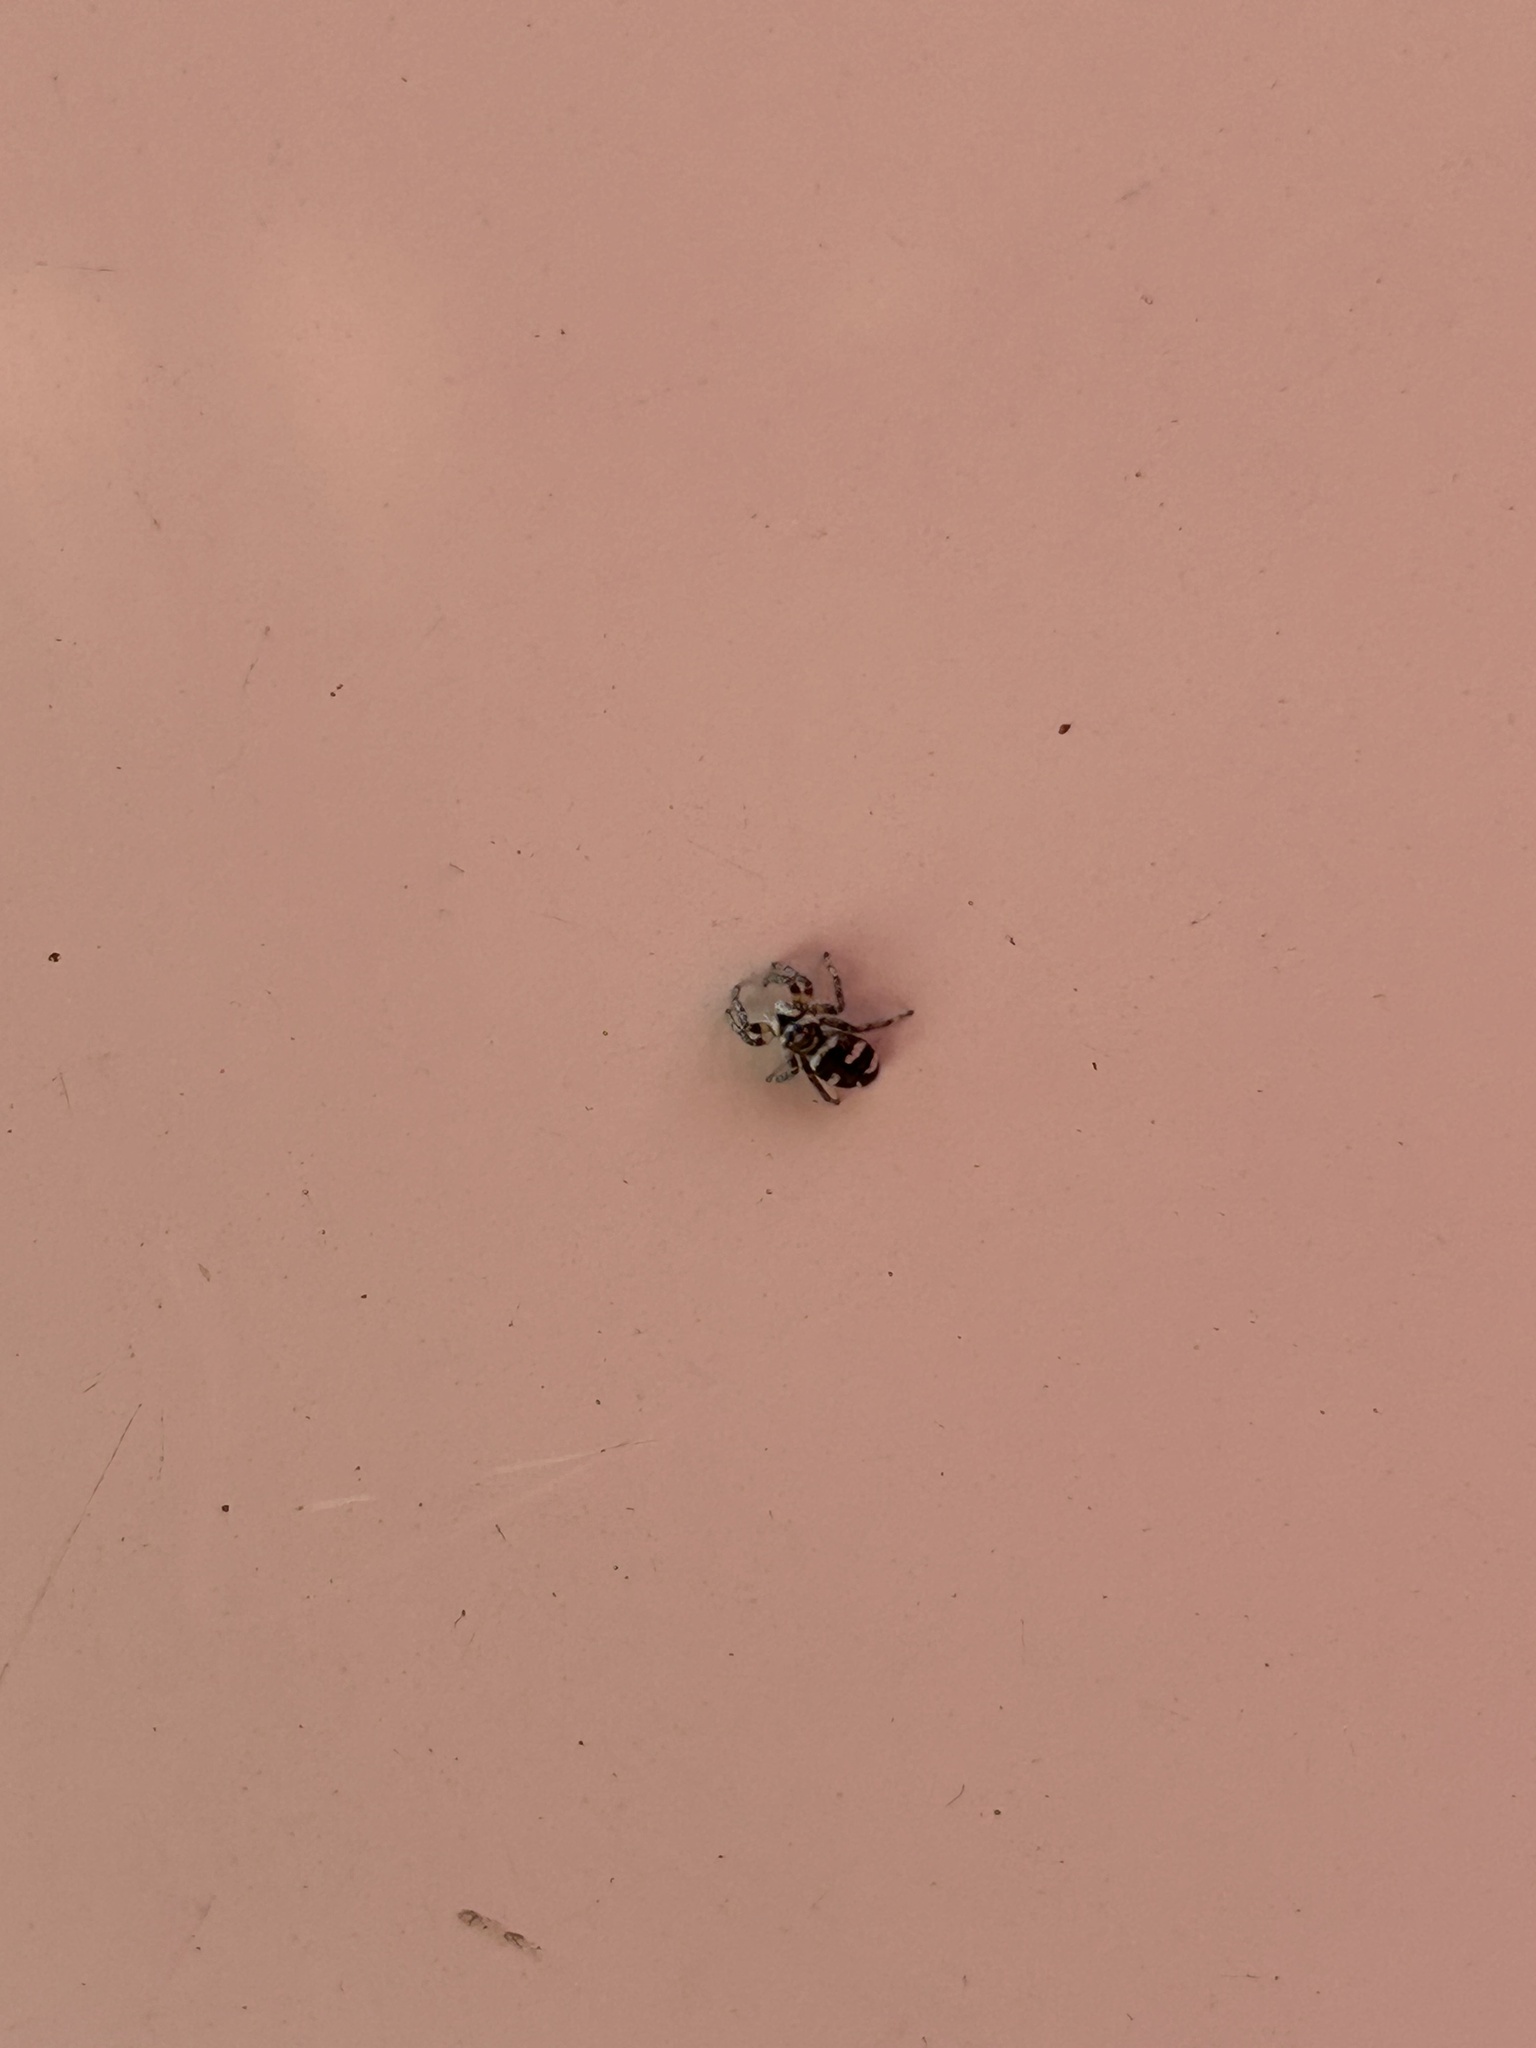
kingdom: Animalia
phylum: Arthropoda
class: Arachnida
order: Araneae
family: Salticidae
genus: Salticus
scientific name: Salticus scenicus
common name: Zebra jumper
